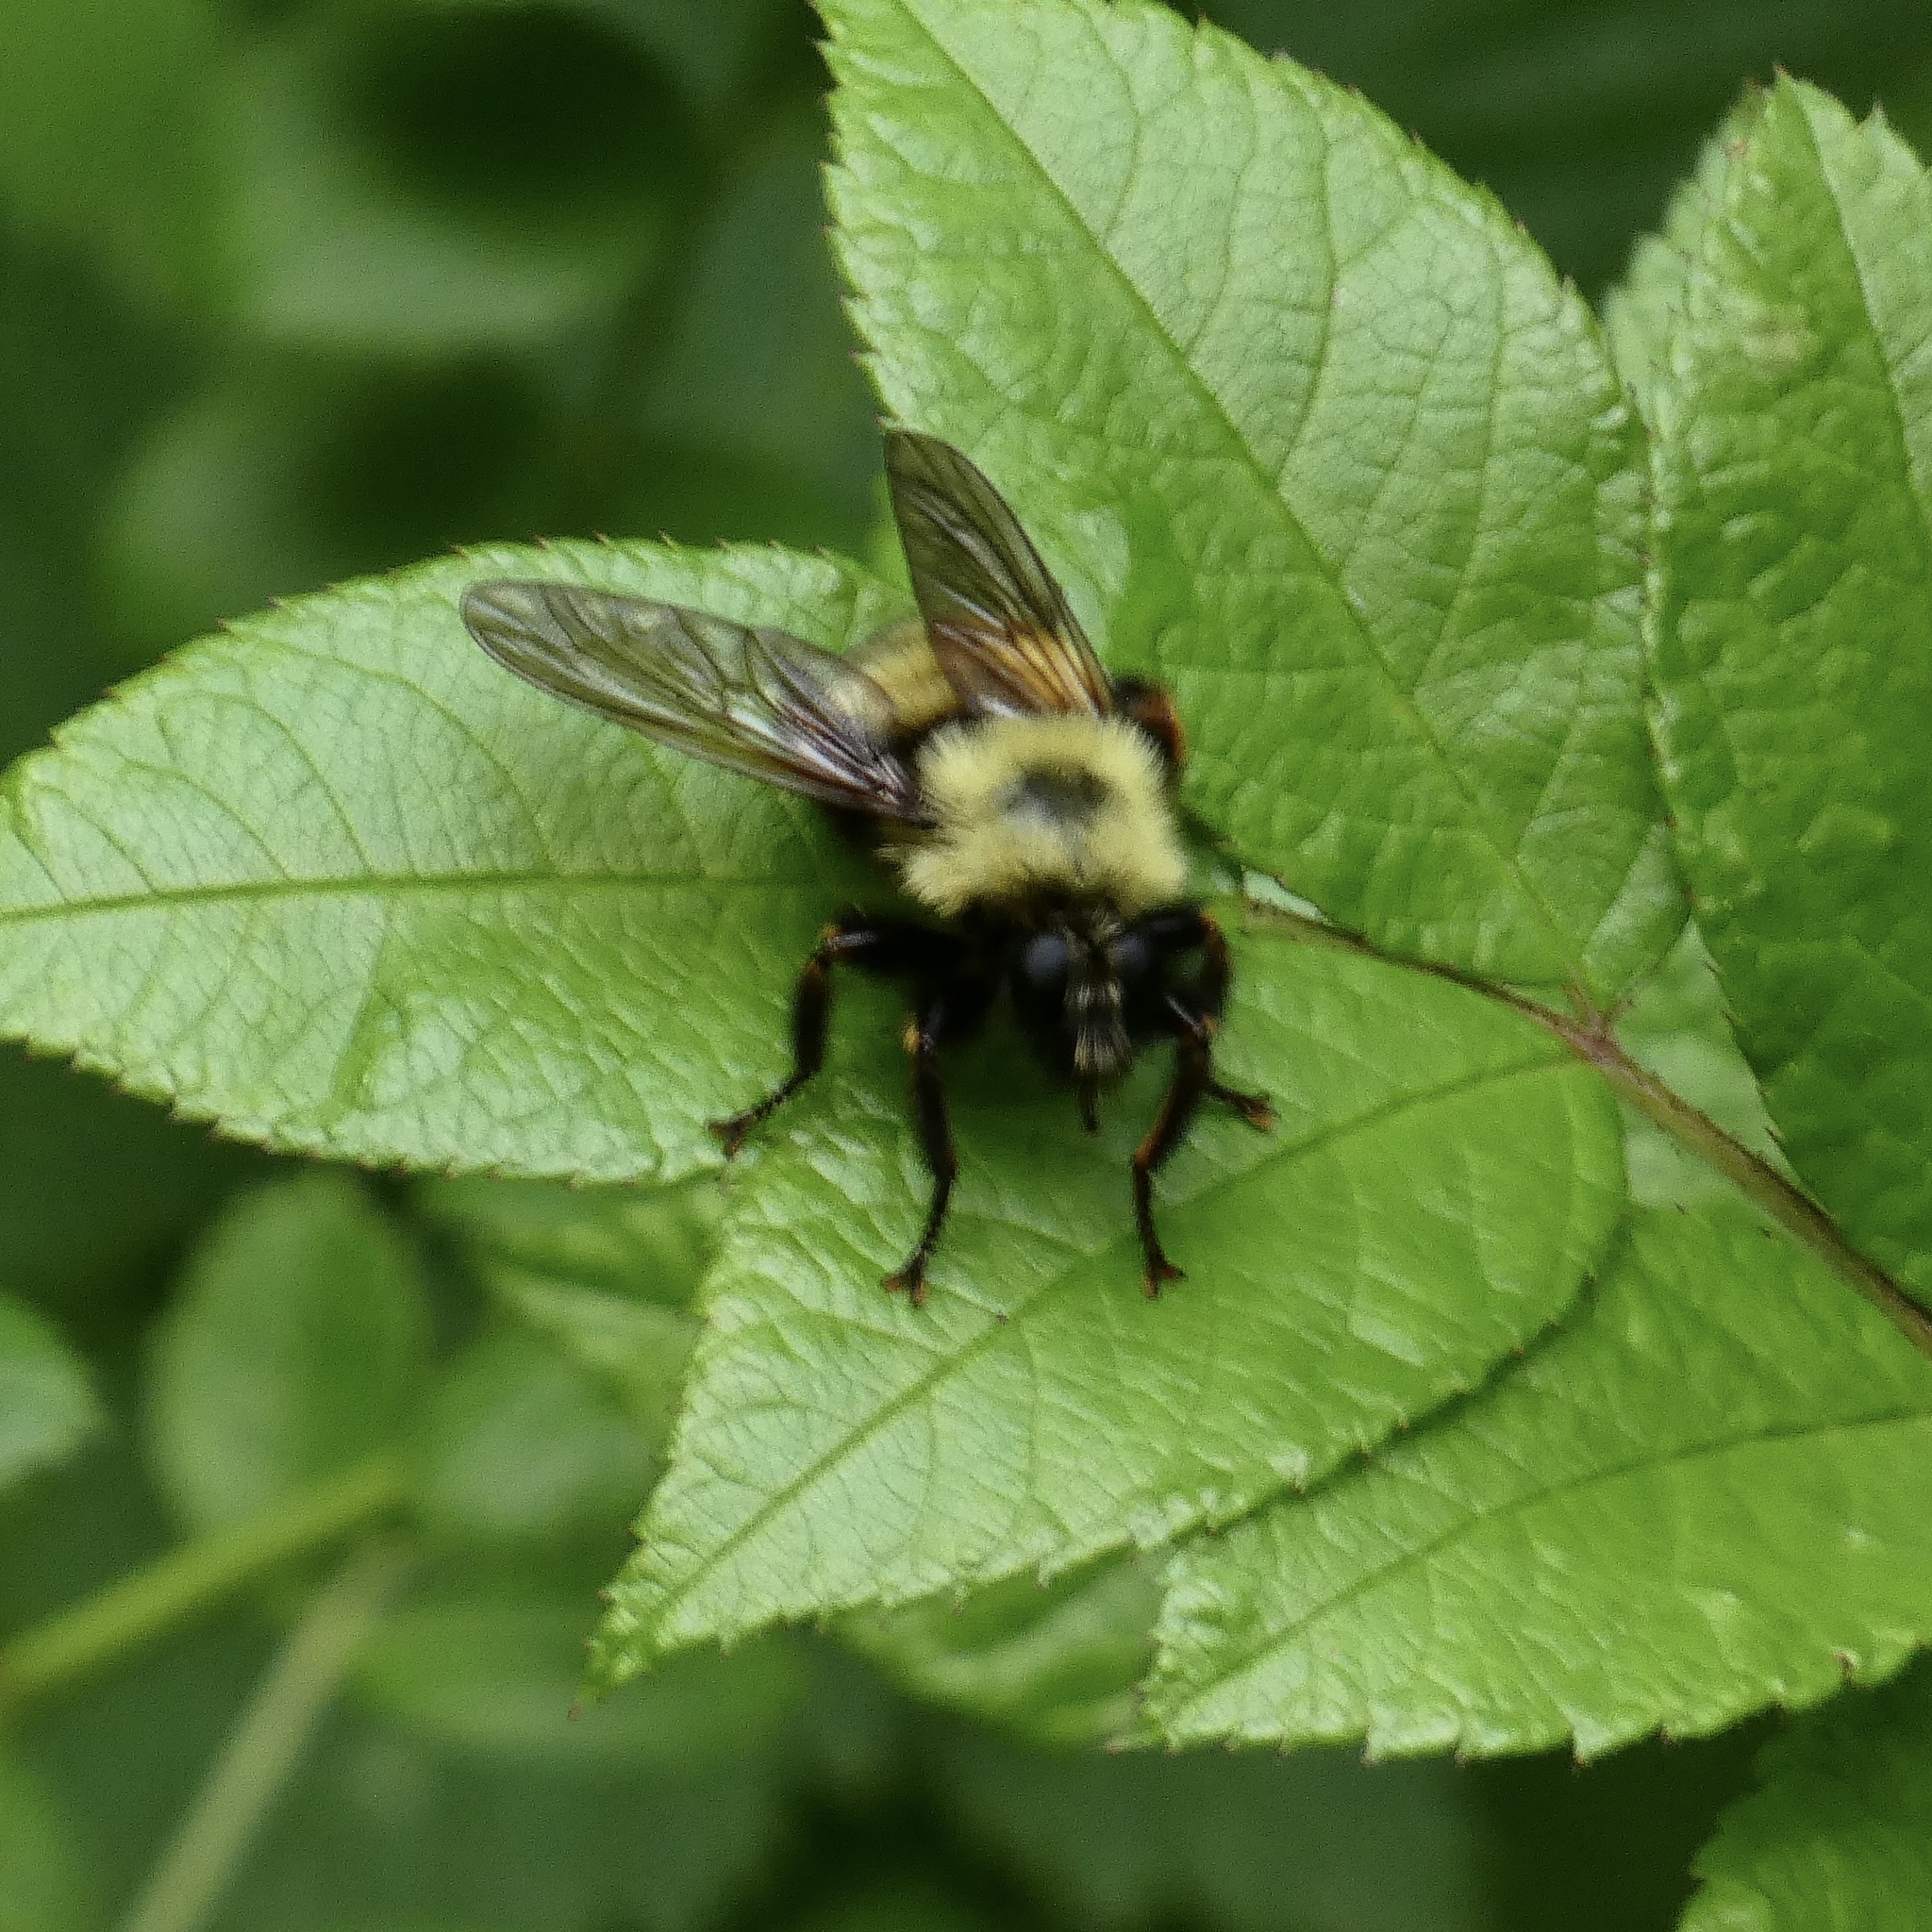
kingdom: Animalia
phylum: Arthropoda
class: Insecta
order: Diptera
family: Asilidae
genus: Laphria
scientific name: Laphria thoracica
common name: Bumble bee mimic robber fly
